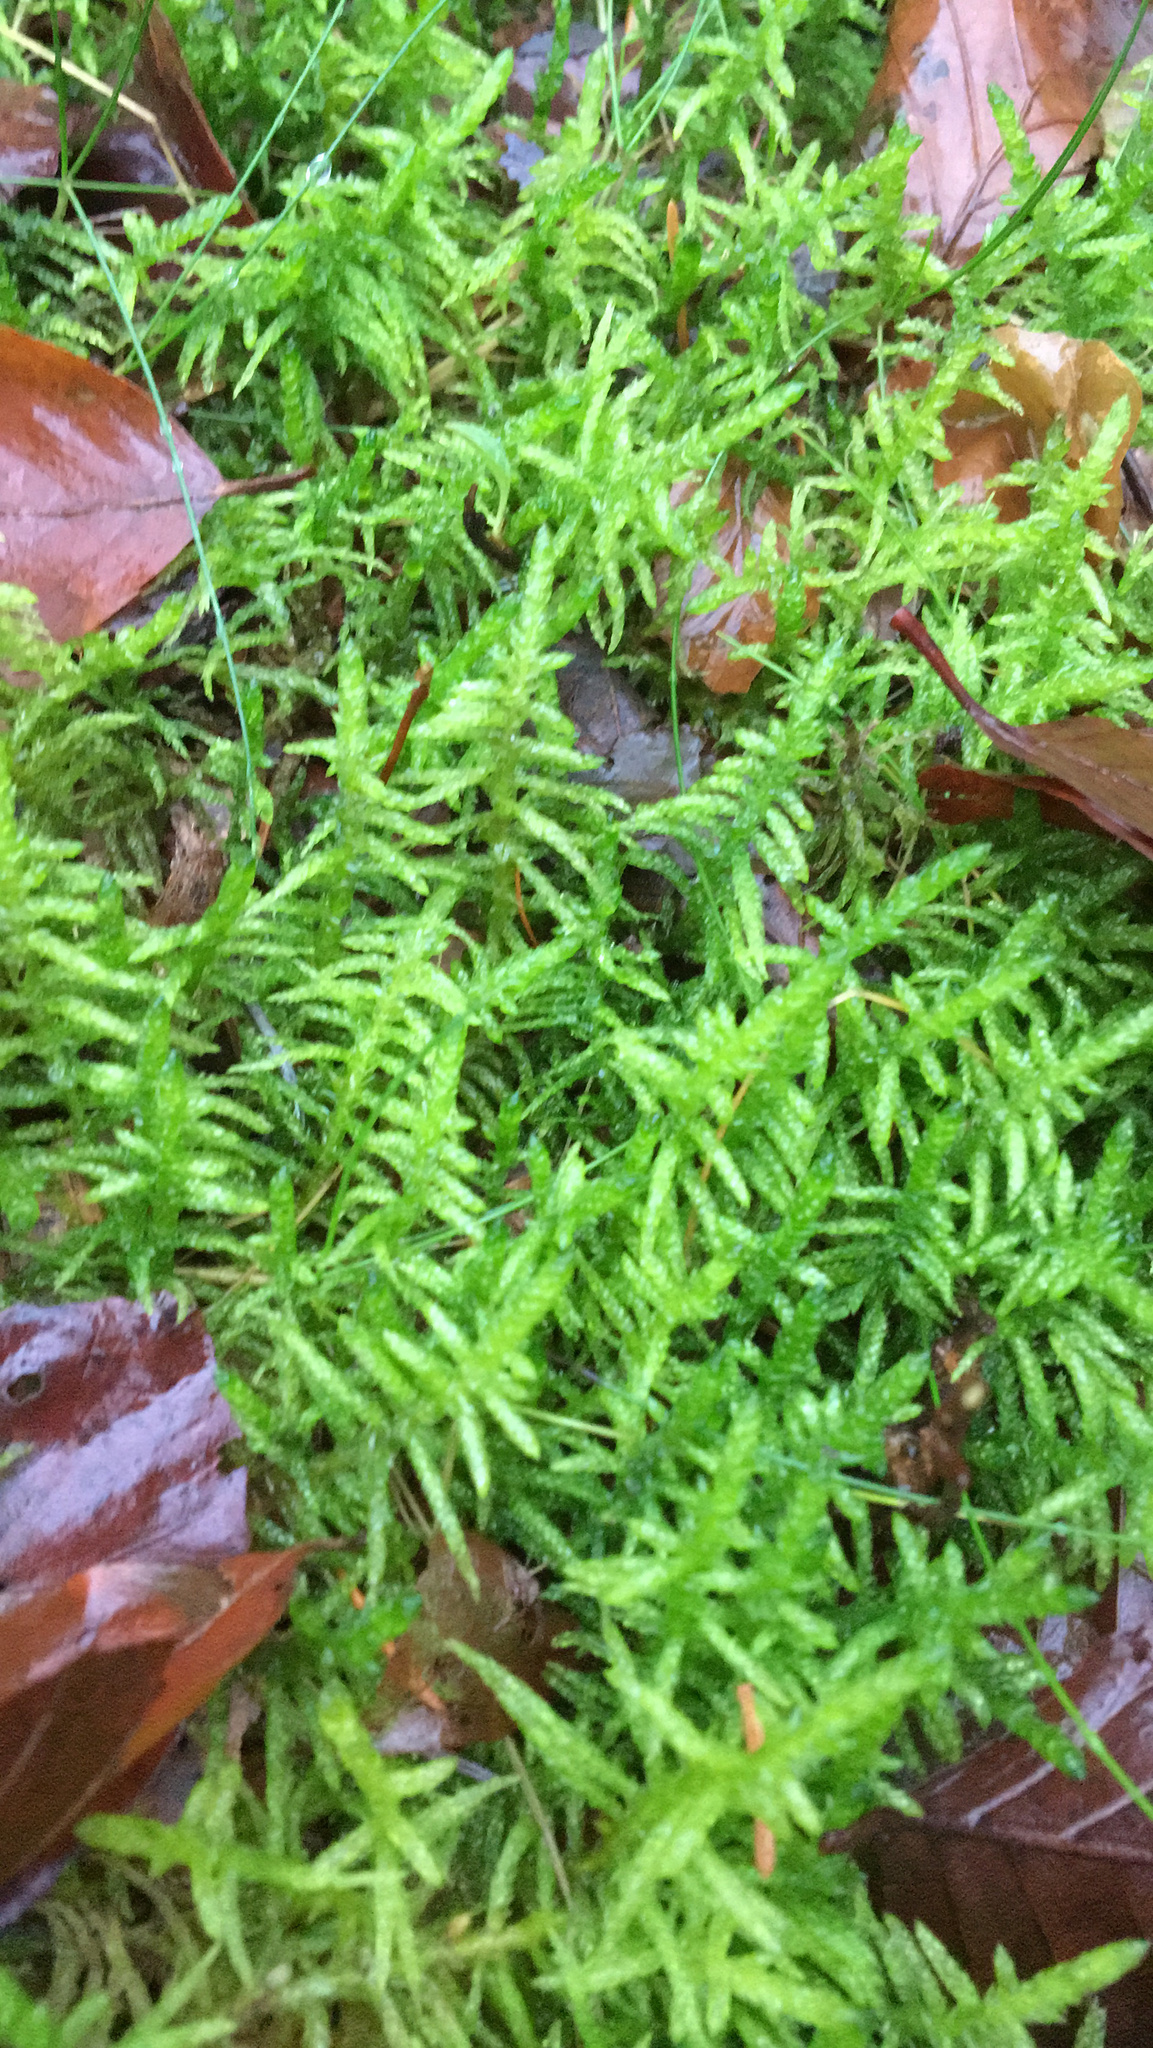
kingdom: Plantae
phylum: Bryophyta
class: Bryopsida
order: Hypnales
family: Brachytheciaceae
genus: Pseudoscleropodium
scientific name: Pseudoscleropodium purum
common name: Neat feather-moss
